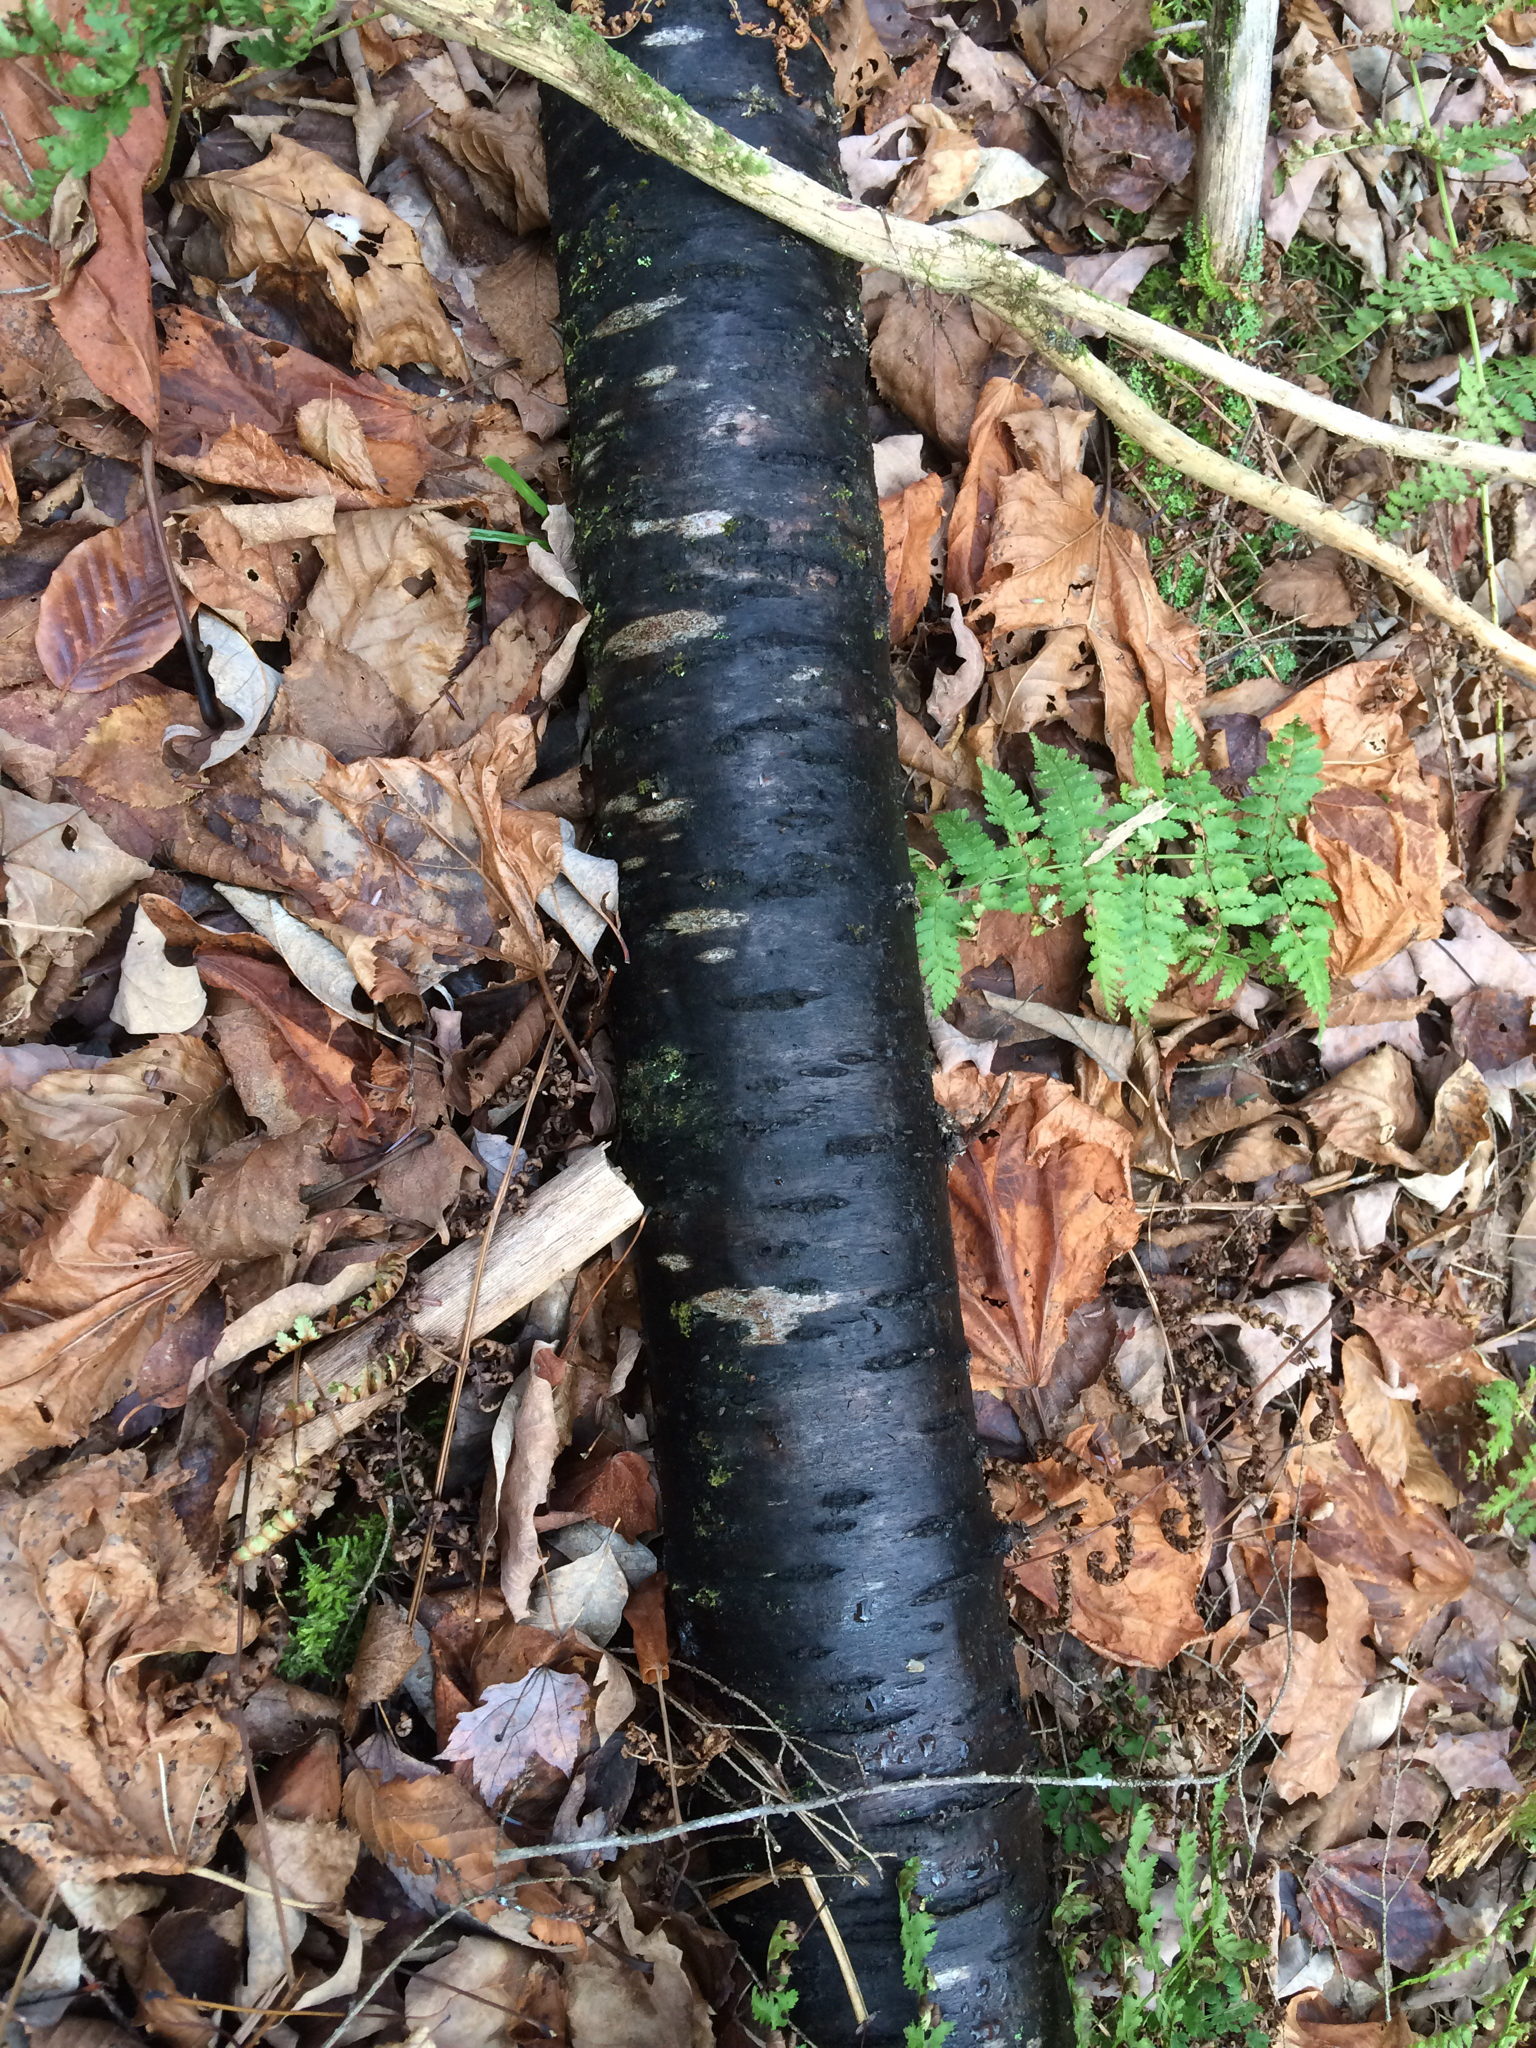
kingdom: Plantae
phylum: Tracheophyta
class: Magnoliopsida
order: Rosales
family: Rosaceae
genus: Prunus
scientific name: Prunus pensylvanica
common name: Pin cherry
